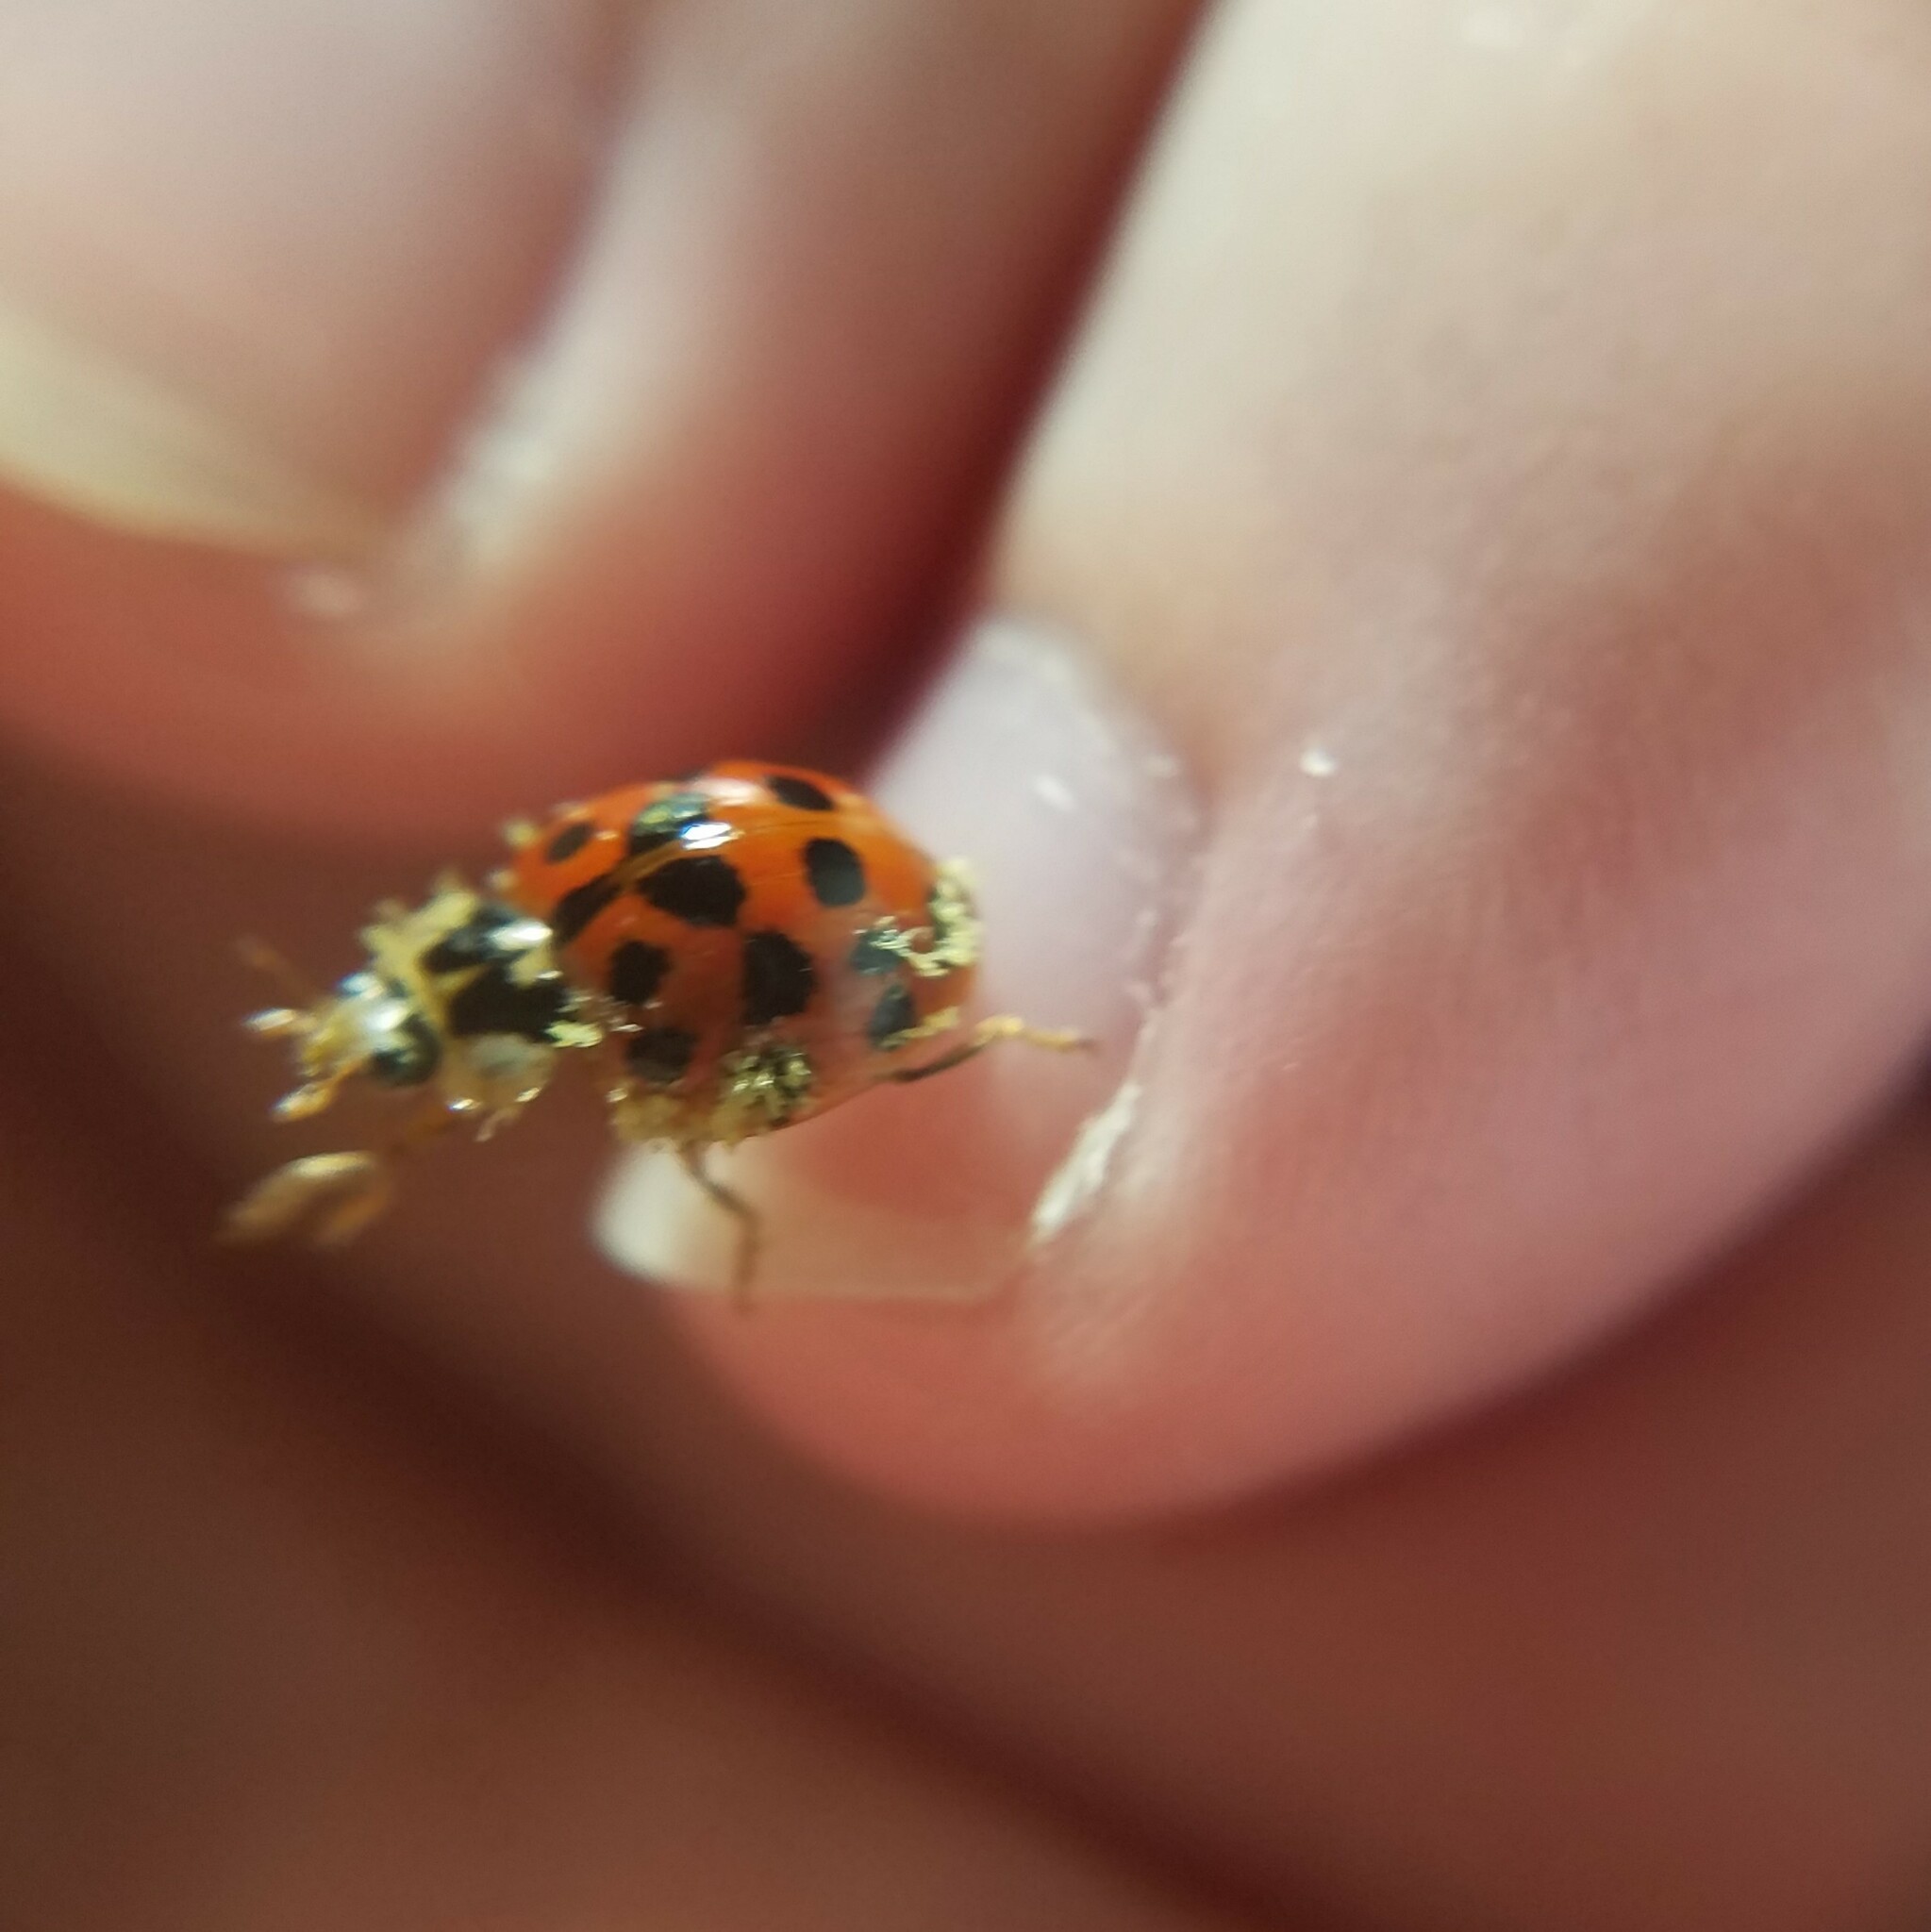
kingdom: Animalia
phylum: Arthropoda
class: Insecta
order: Coleoptera
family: Coccinellidae
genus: Harmonia
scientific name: Harmonia axyridis
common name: Harlequin ladybird
